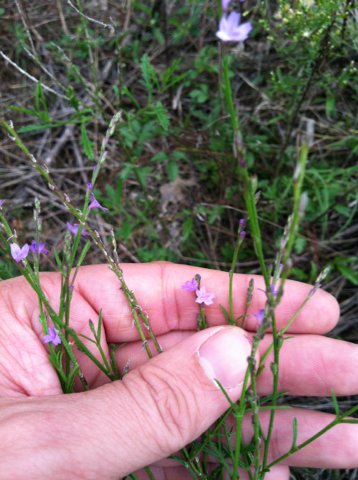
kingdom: Plantae
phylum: Tracheophyta
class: Magnoliopsida
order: Lamiales
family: Verbenaceae
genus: Verbena
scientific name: Verbena halei
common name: Texas vervain
